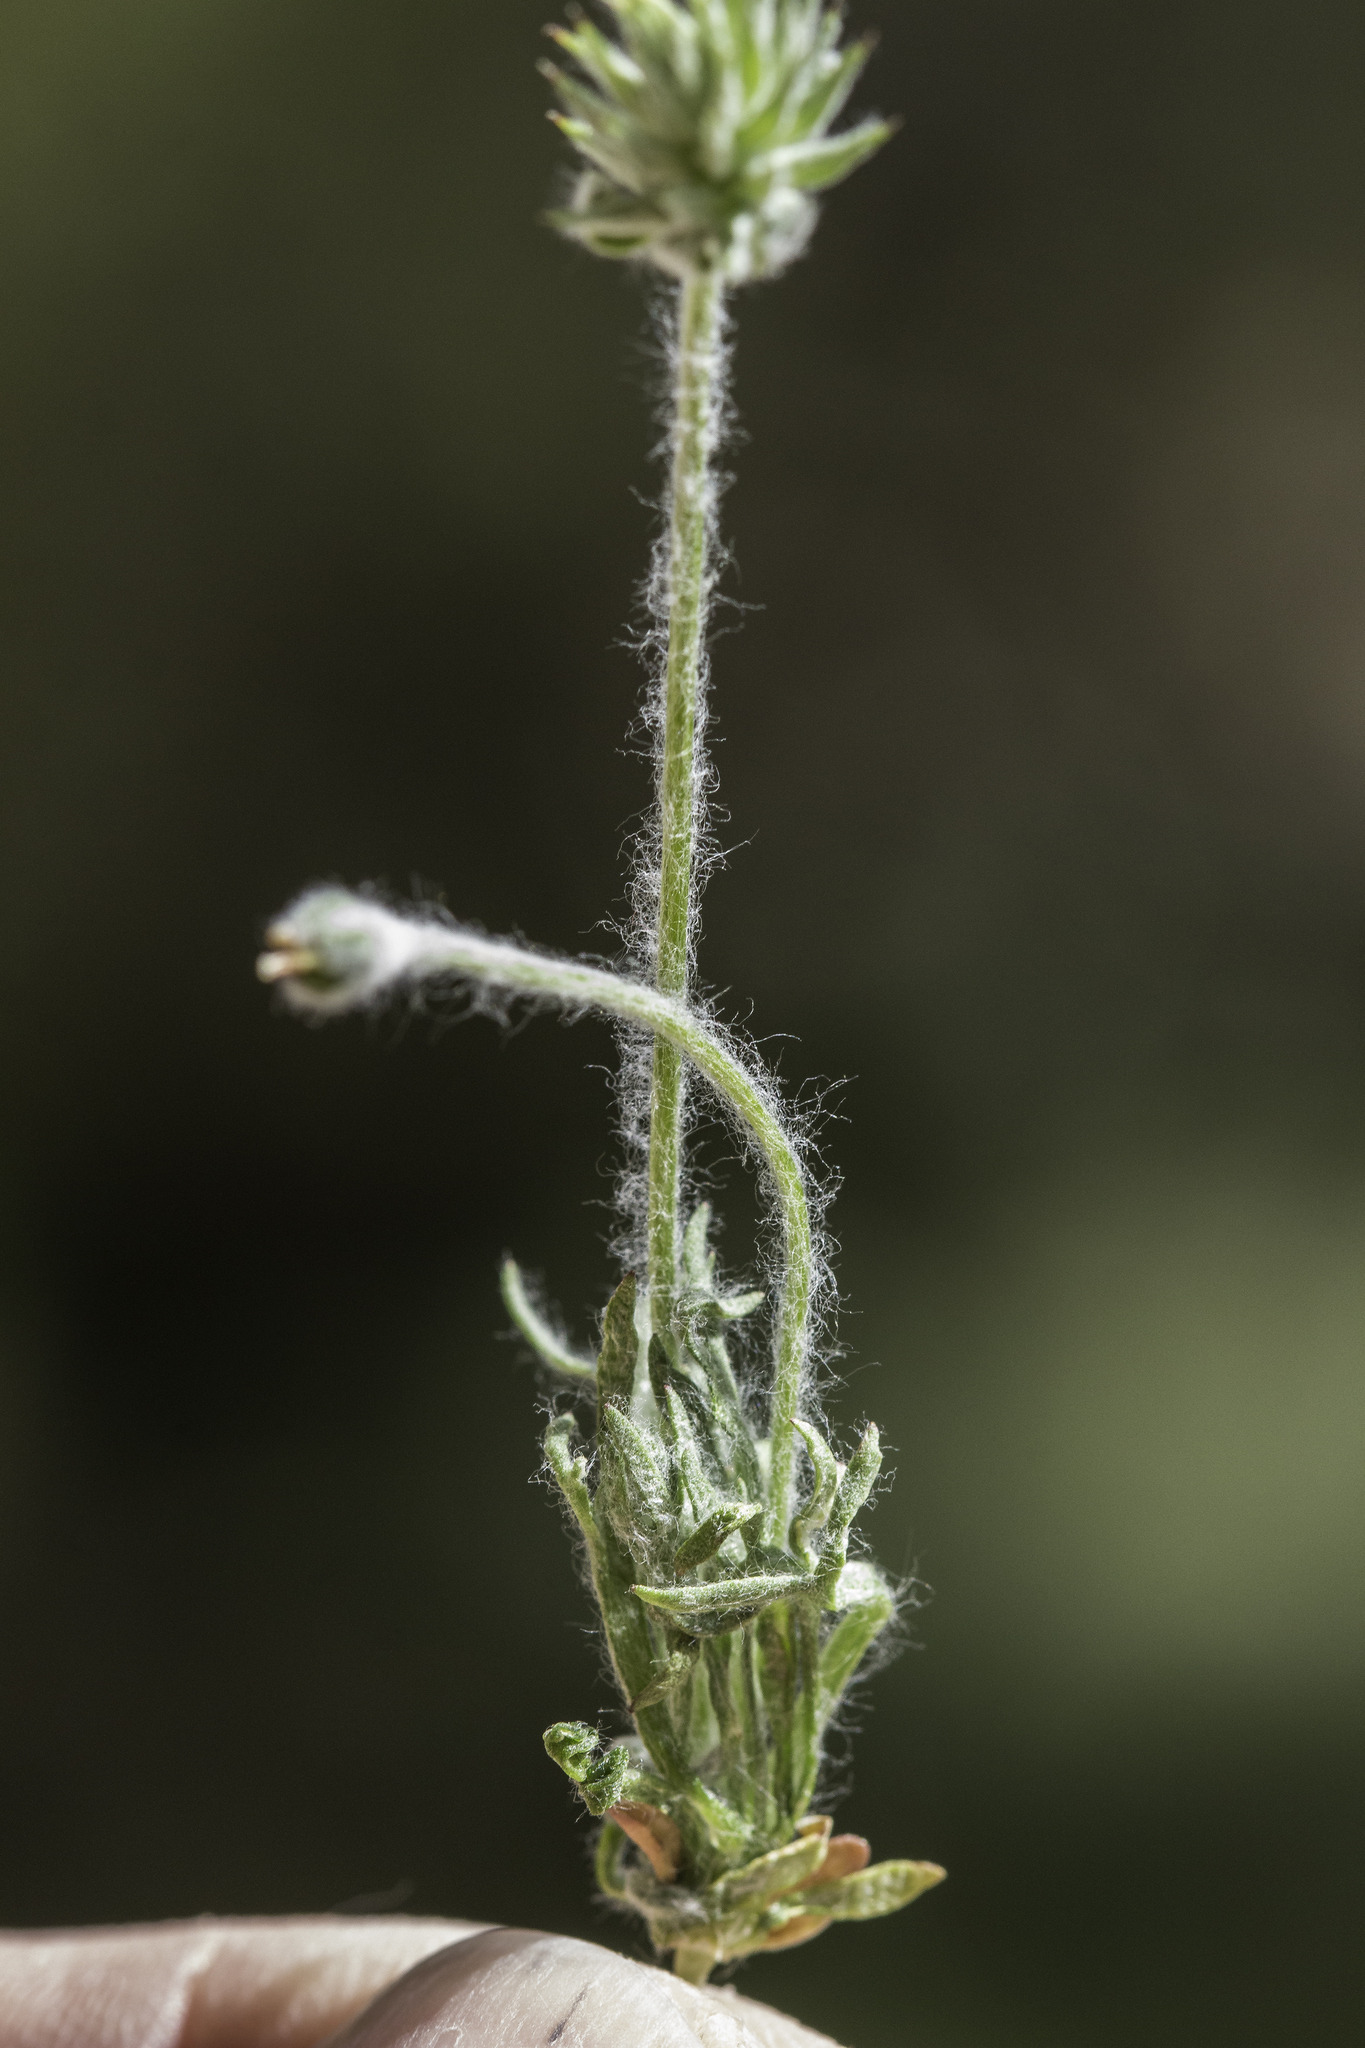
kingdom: Plantae
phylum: Tracheophyta
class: Magnoliopsida
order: Ranunculales
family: Ranunculaceae
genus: Ceratocephala
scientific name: Ceratocephala orthoceras
